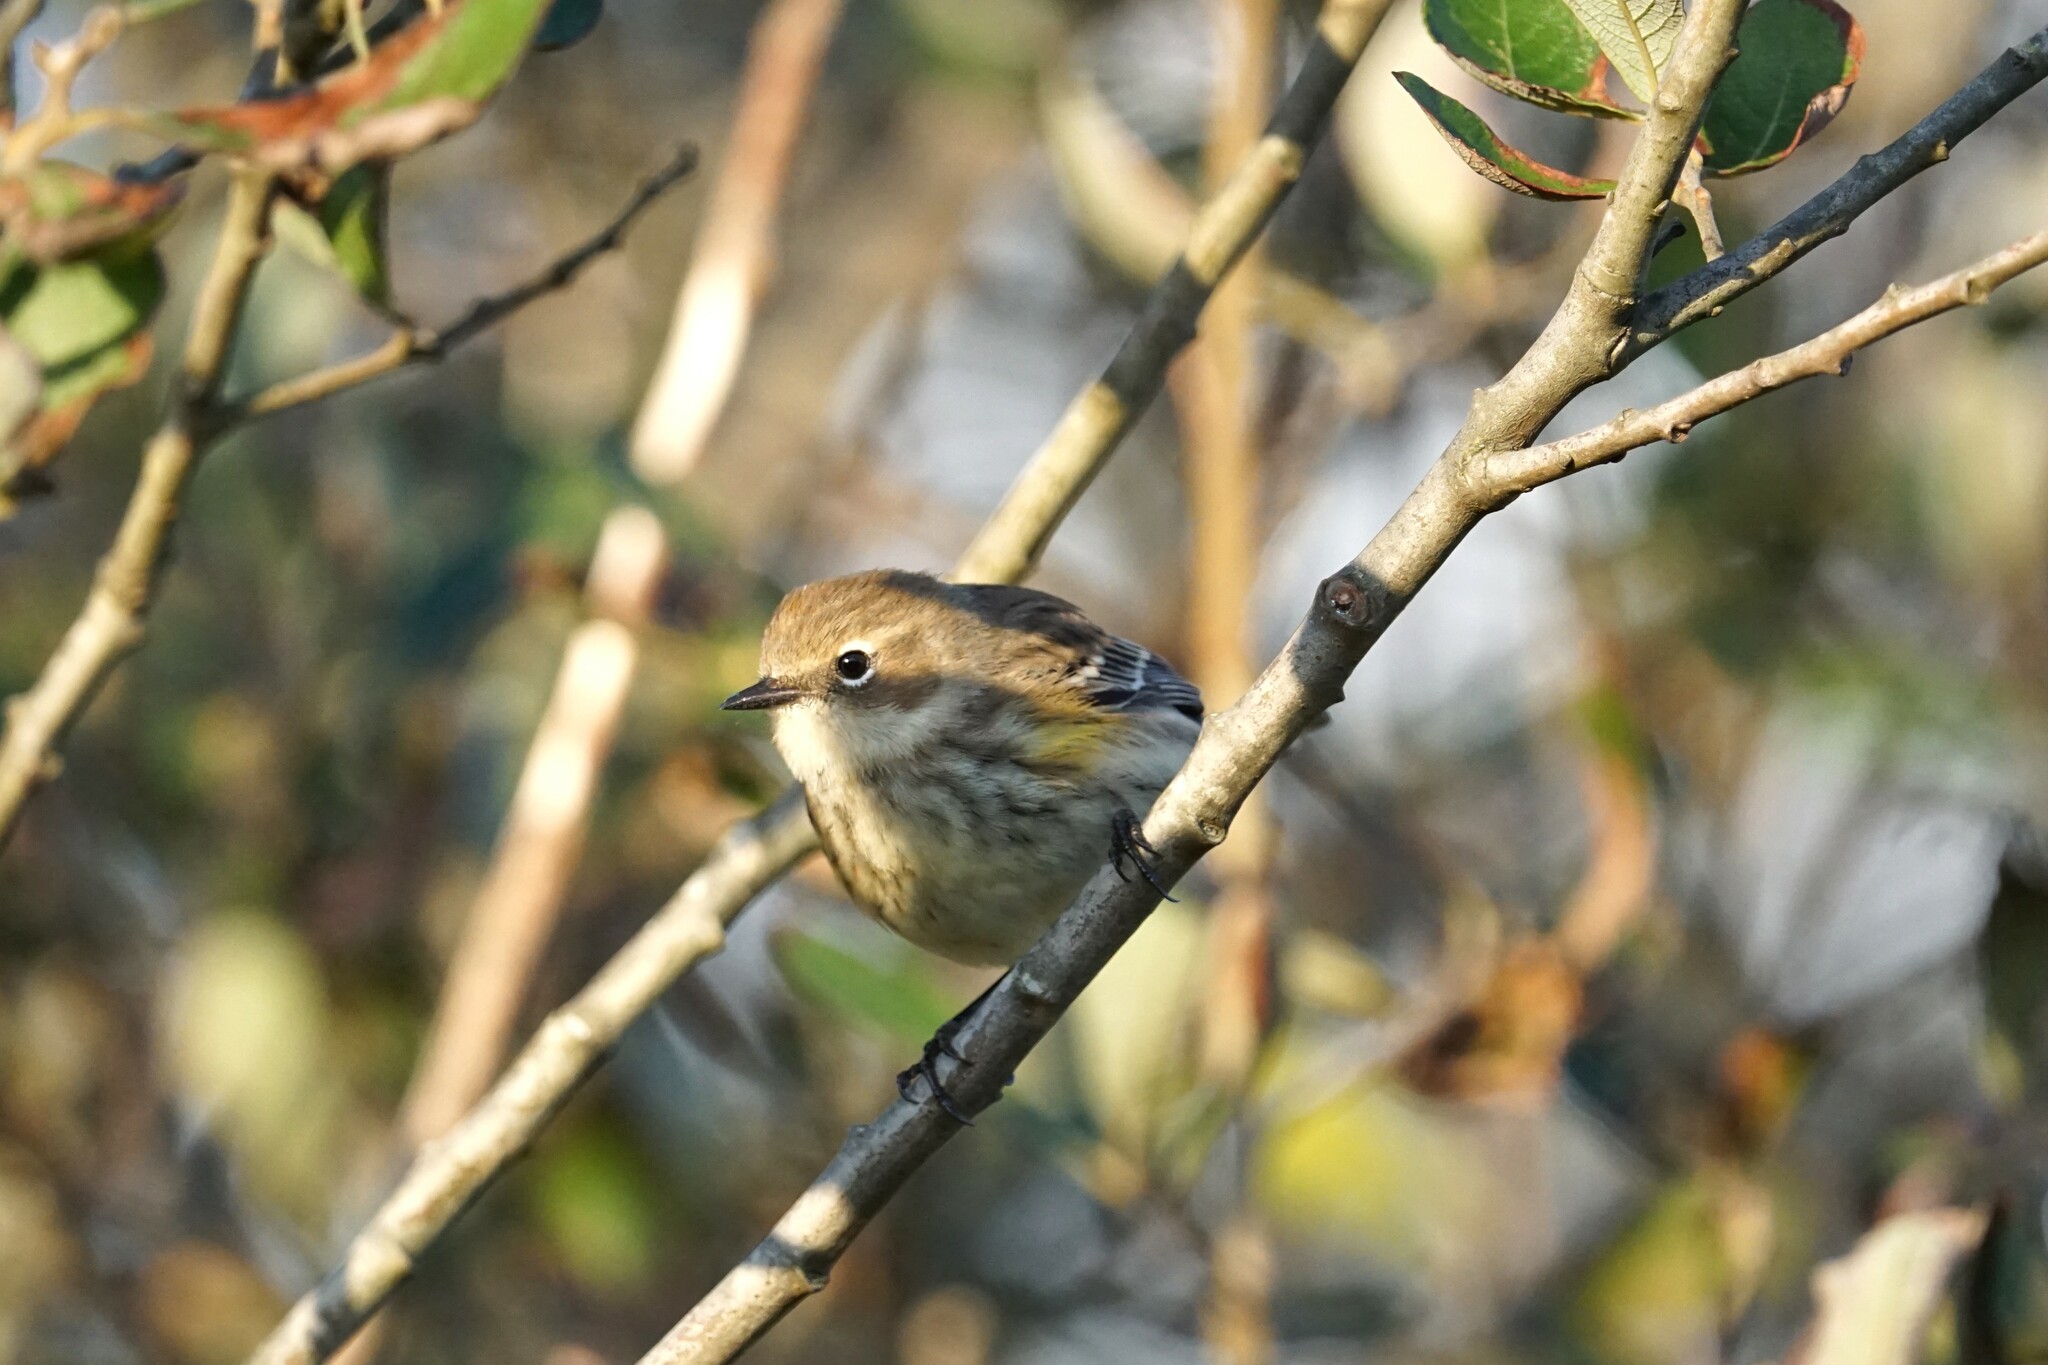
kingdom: Animalia
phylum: Chordata
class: Aves
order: Passeriformes
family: Parulidae
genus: Setophaga
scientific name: Setophaga coronata
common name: Myrtle warbler
